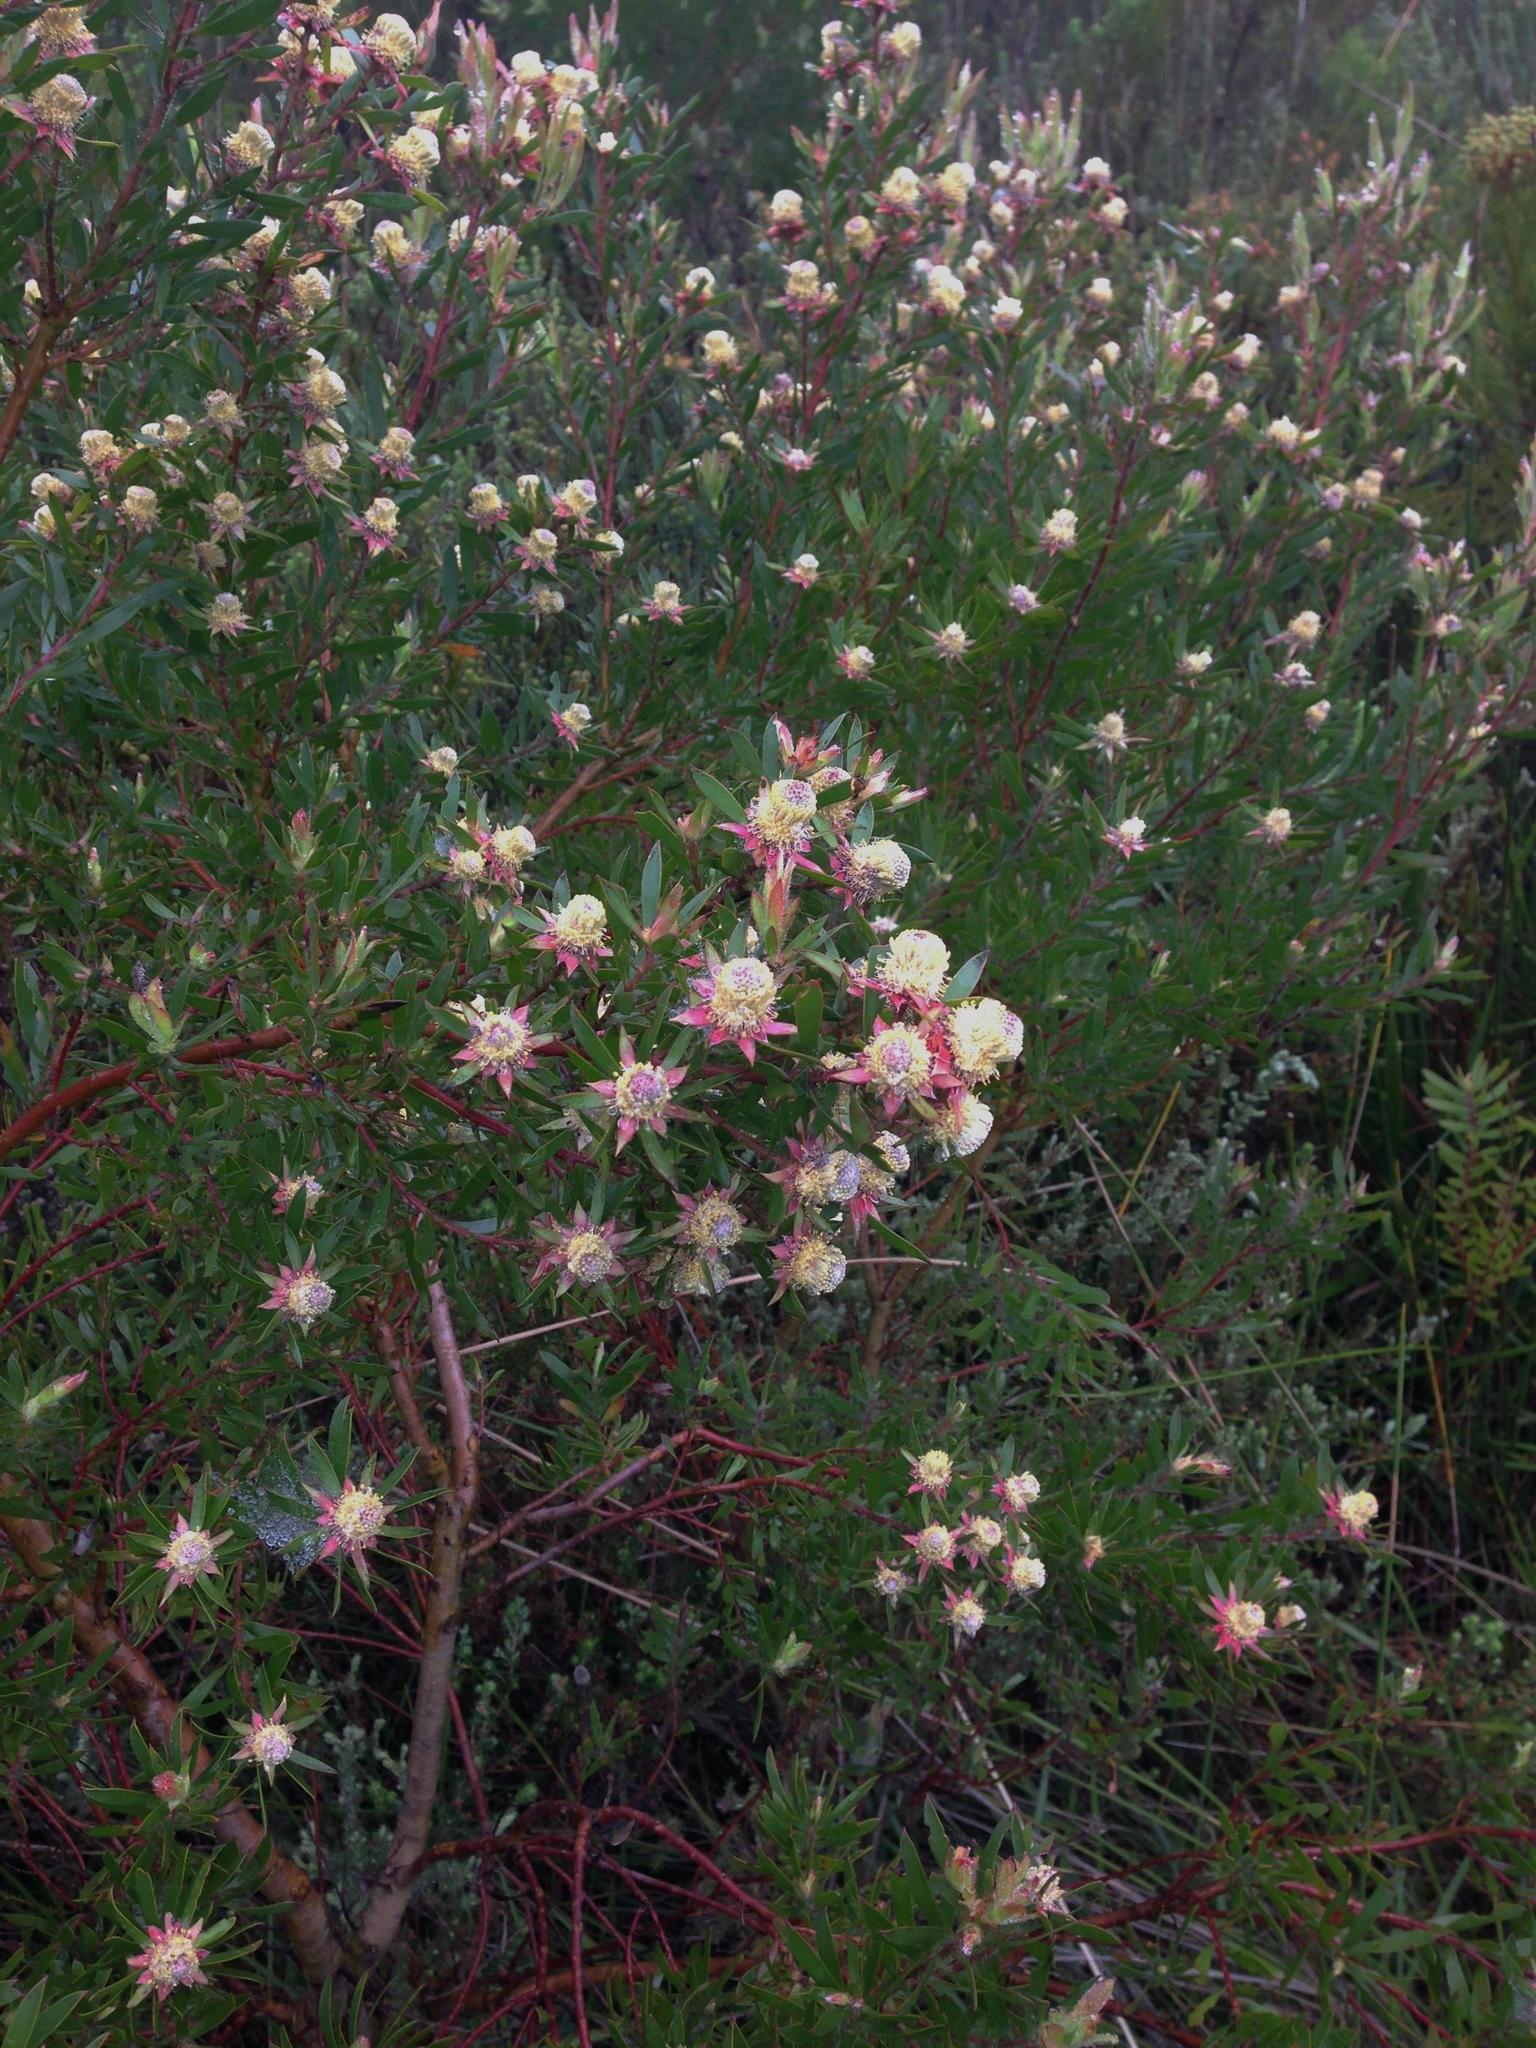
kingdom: Plantae
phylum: Tracheophyta
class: Magnoliopsida
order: Proteales
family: Proteaceae
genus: Leucadendron
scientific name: Leucadendron conicum
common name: Garden route conebush
